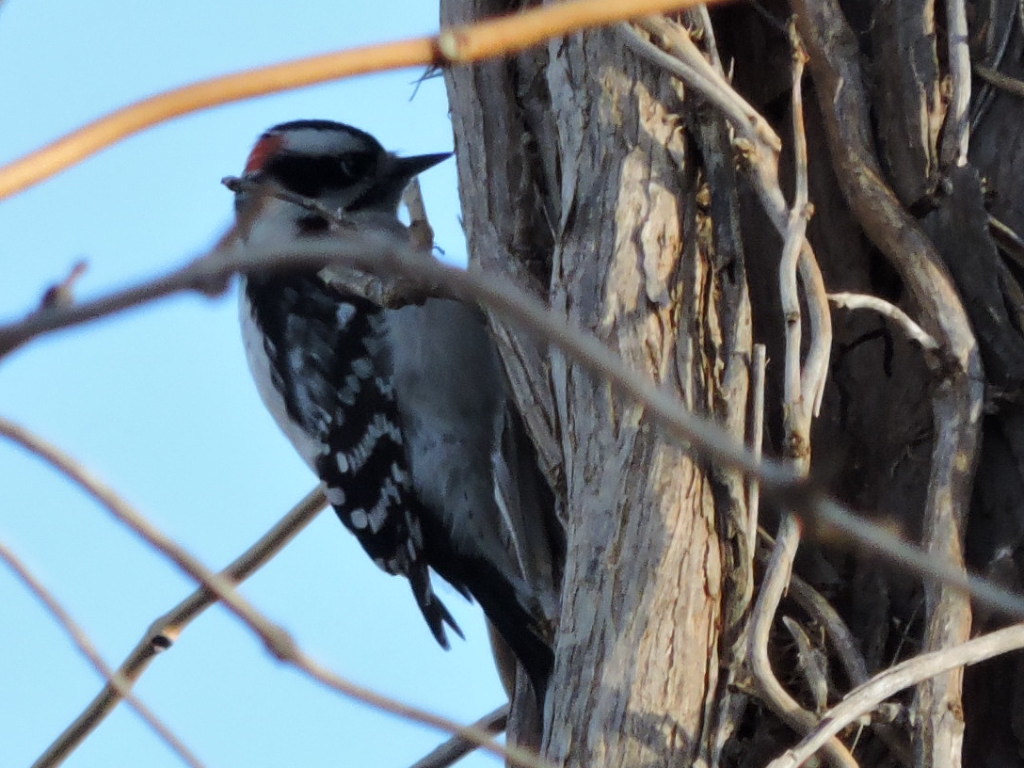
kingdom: Animalia
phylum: Chordata
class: Aves
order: Piciformes
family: Picidae
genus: Dryobates
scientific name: Dryobates pubescens
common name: Downy woodpecker
